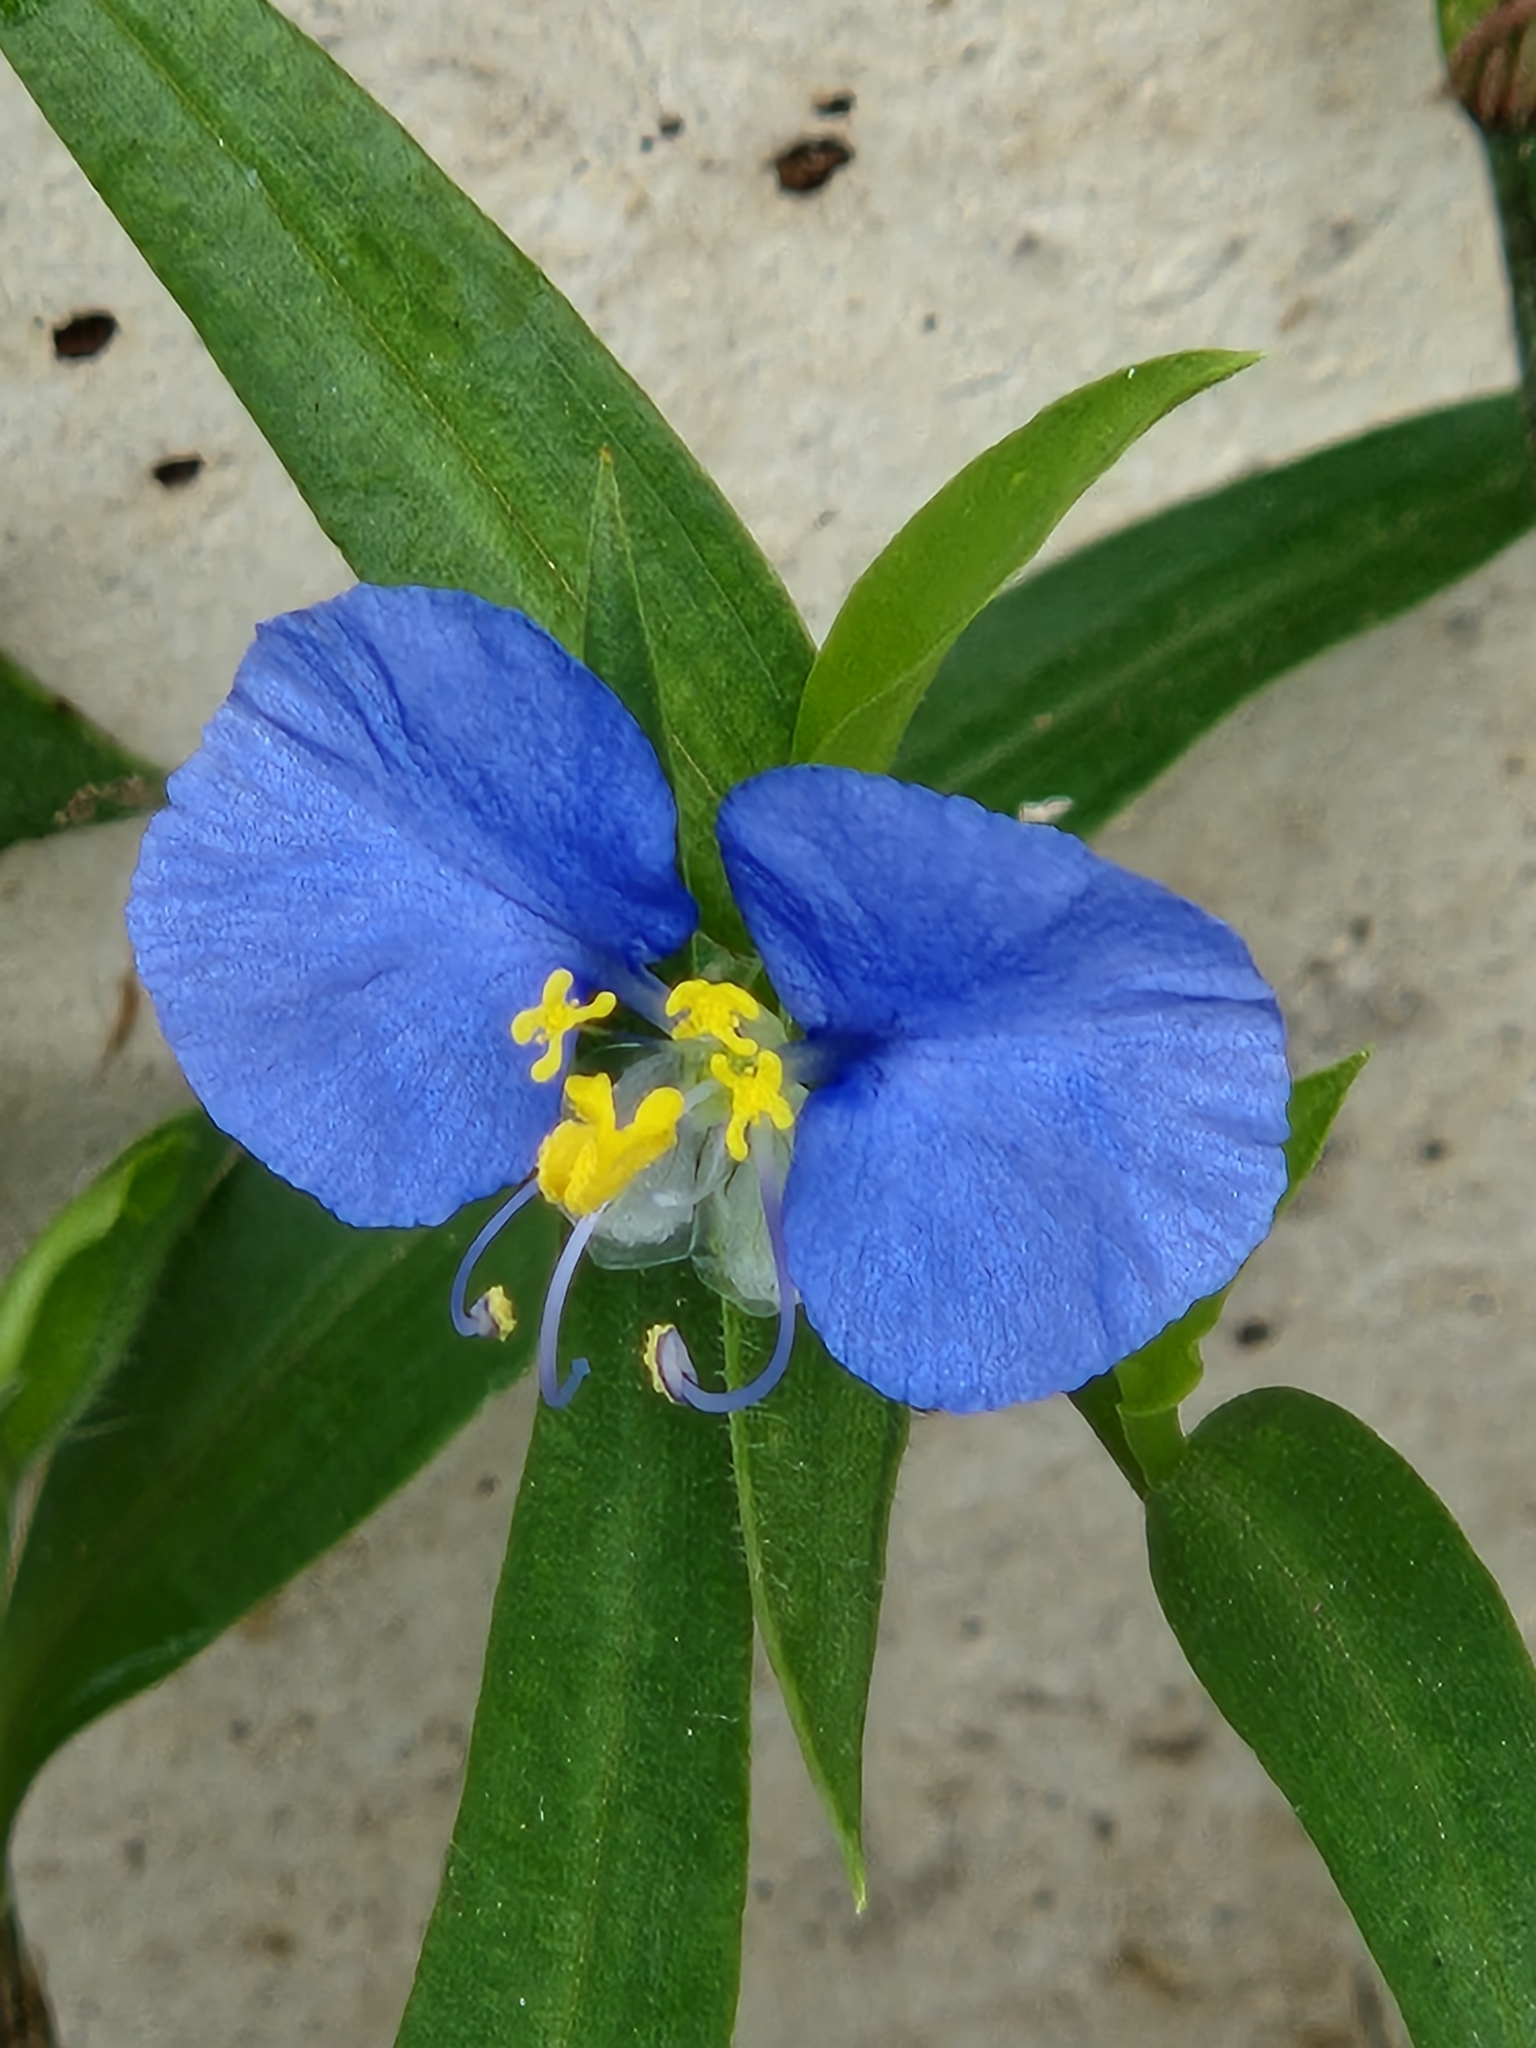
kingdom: Plantae
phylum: Tracheophyta
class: Liliopsida
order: Commelinales
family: Commelinaceae
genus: Commelina
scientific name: Commelina erecta
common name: Blousel blommetjie
